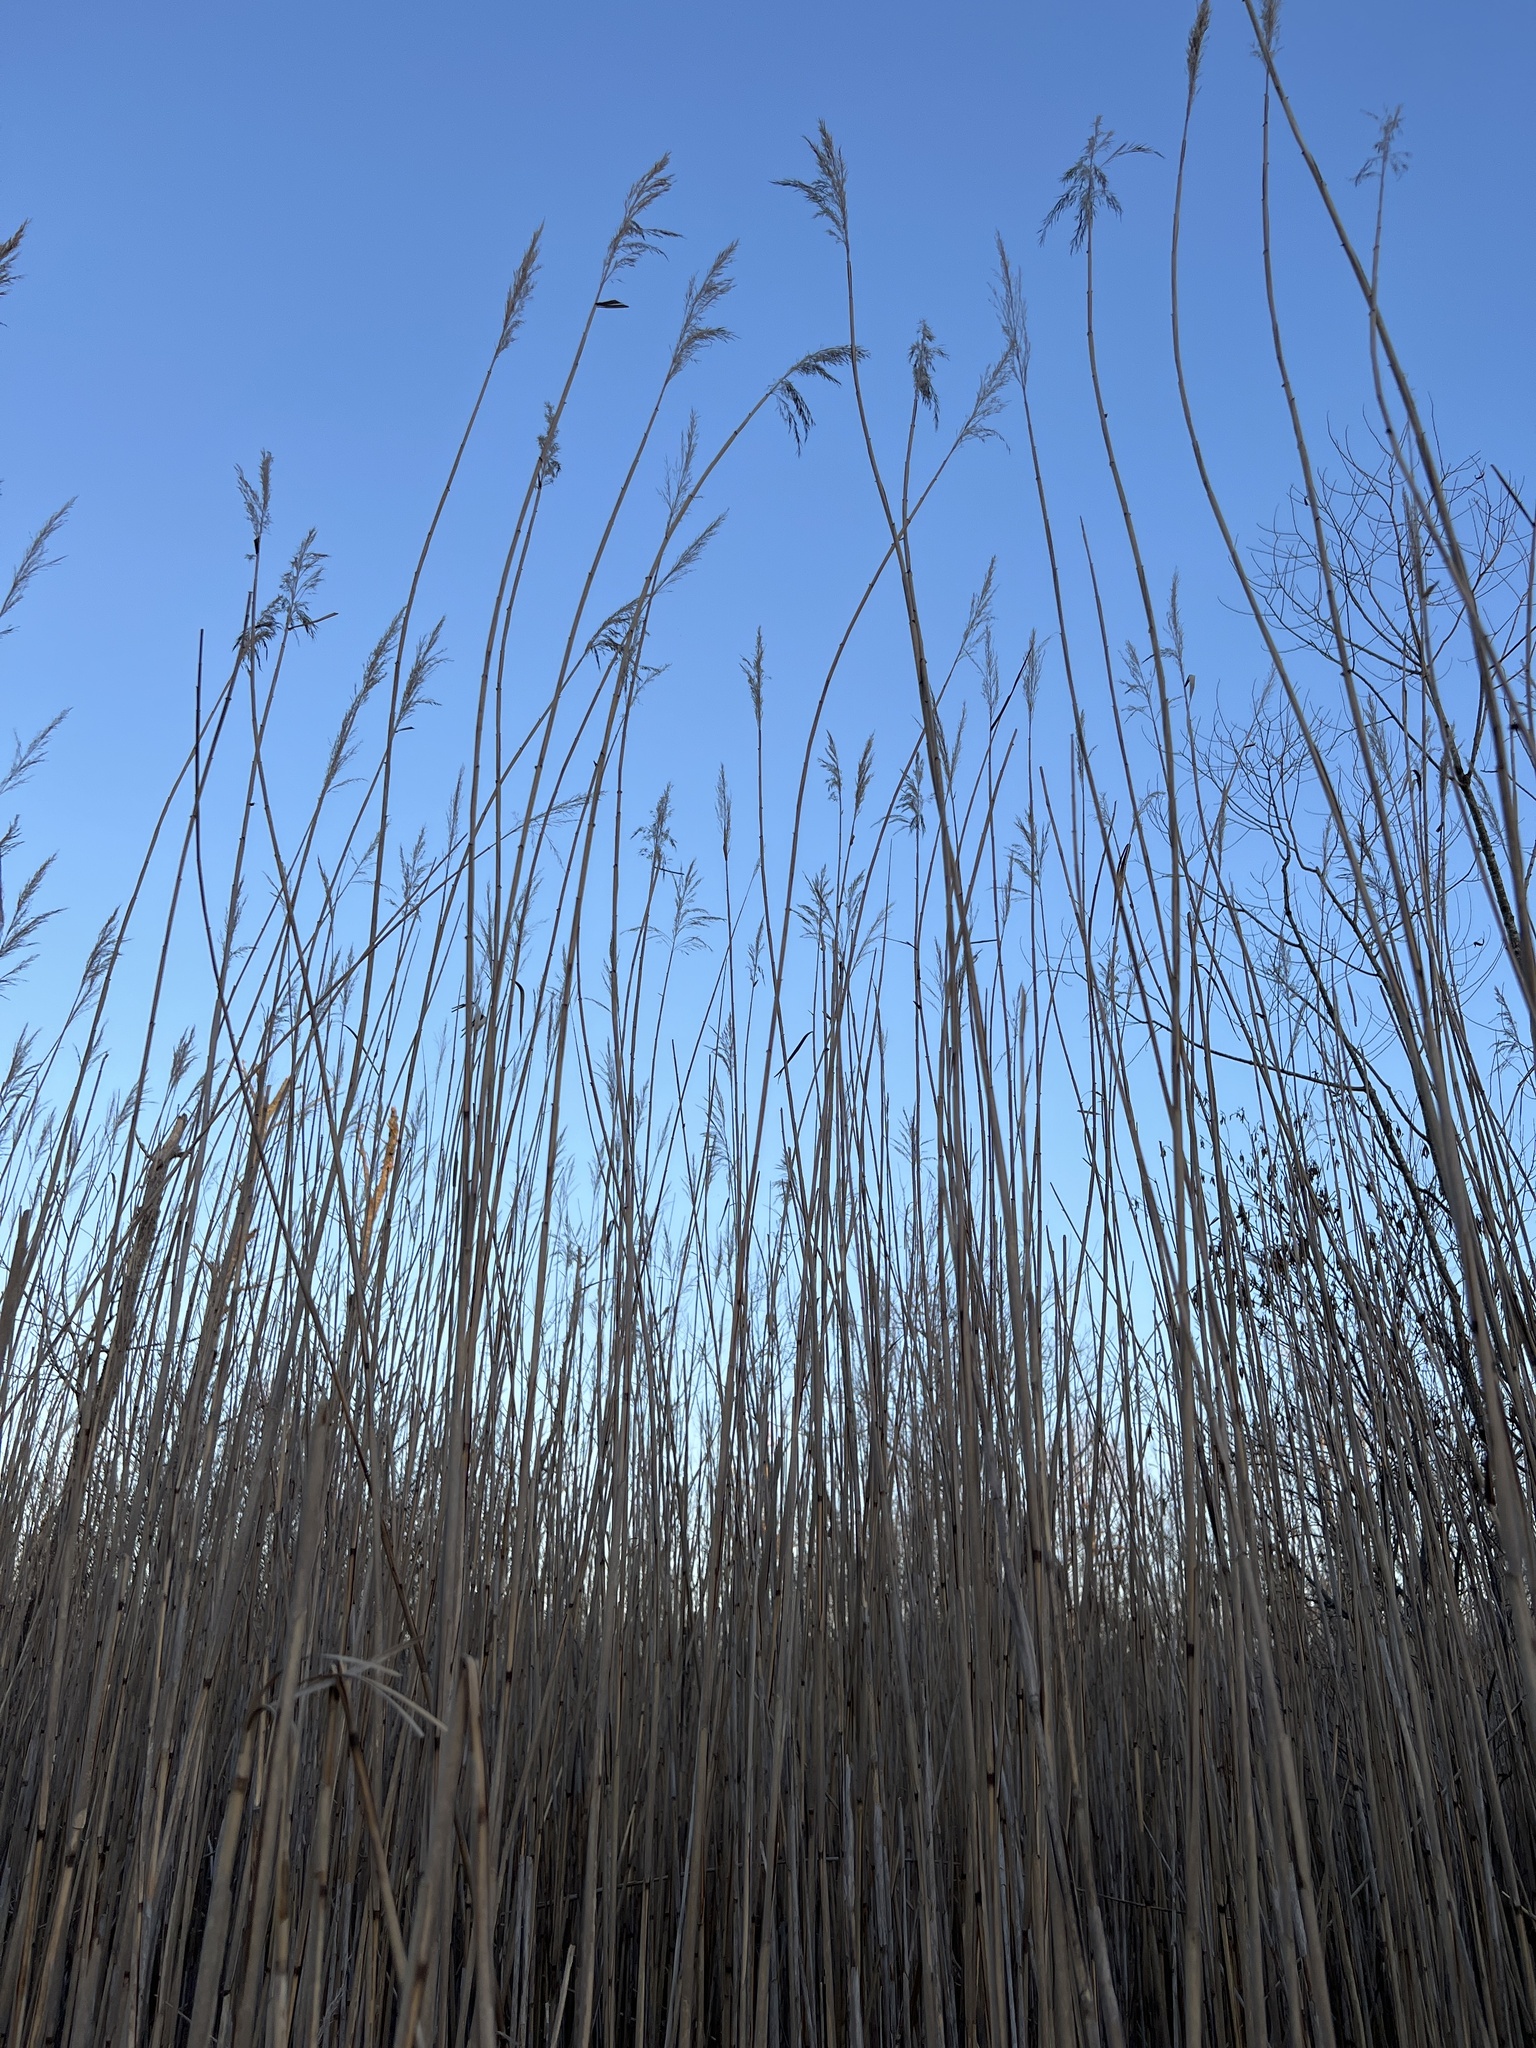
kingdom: Plantae
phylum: Tracheophyta
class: Liliopsida
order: Poales
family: Poaceae
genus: Phragmites
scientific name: Phragmites australis
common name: Common reed
